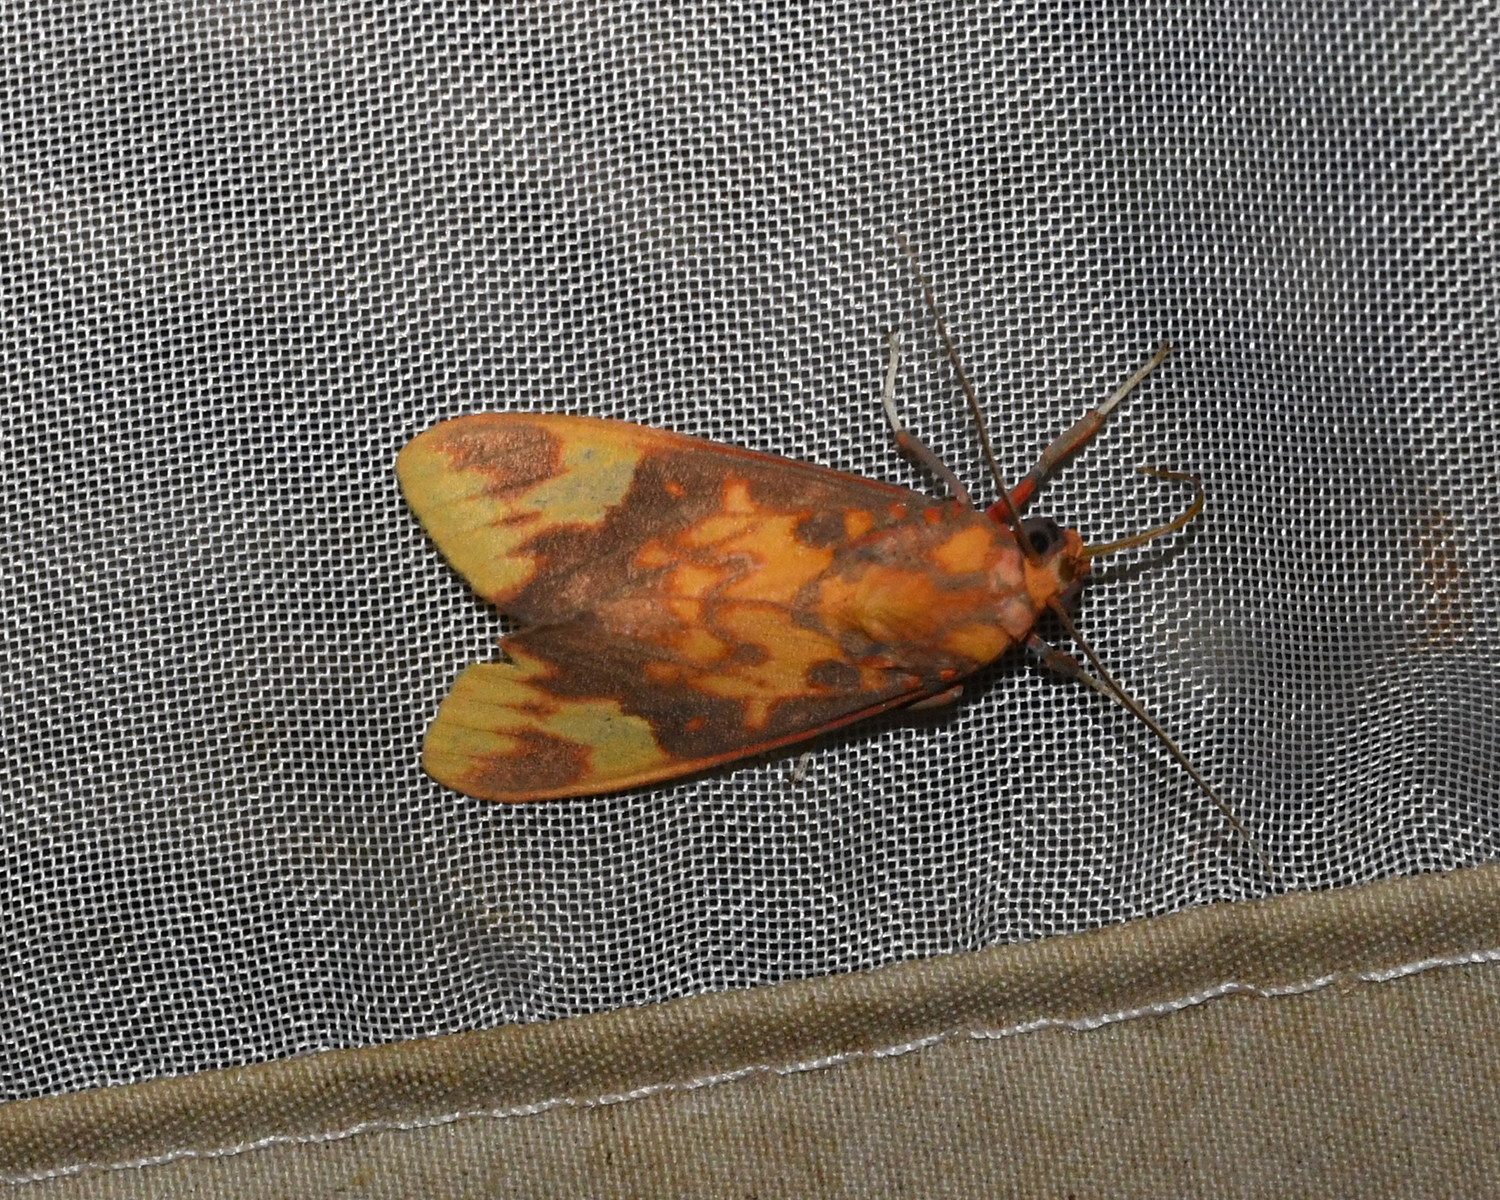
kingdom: Animalia
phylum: Arthropoda
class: Insecta
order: Lepidoptera
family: Erebidae
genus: Melese
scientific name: Melese laodamia
